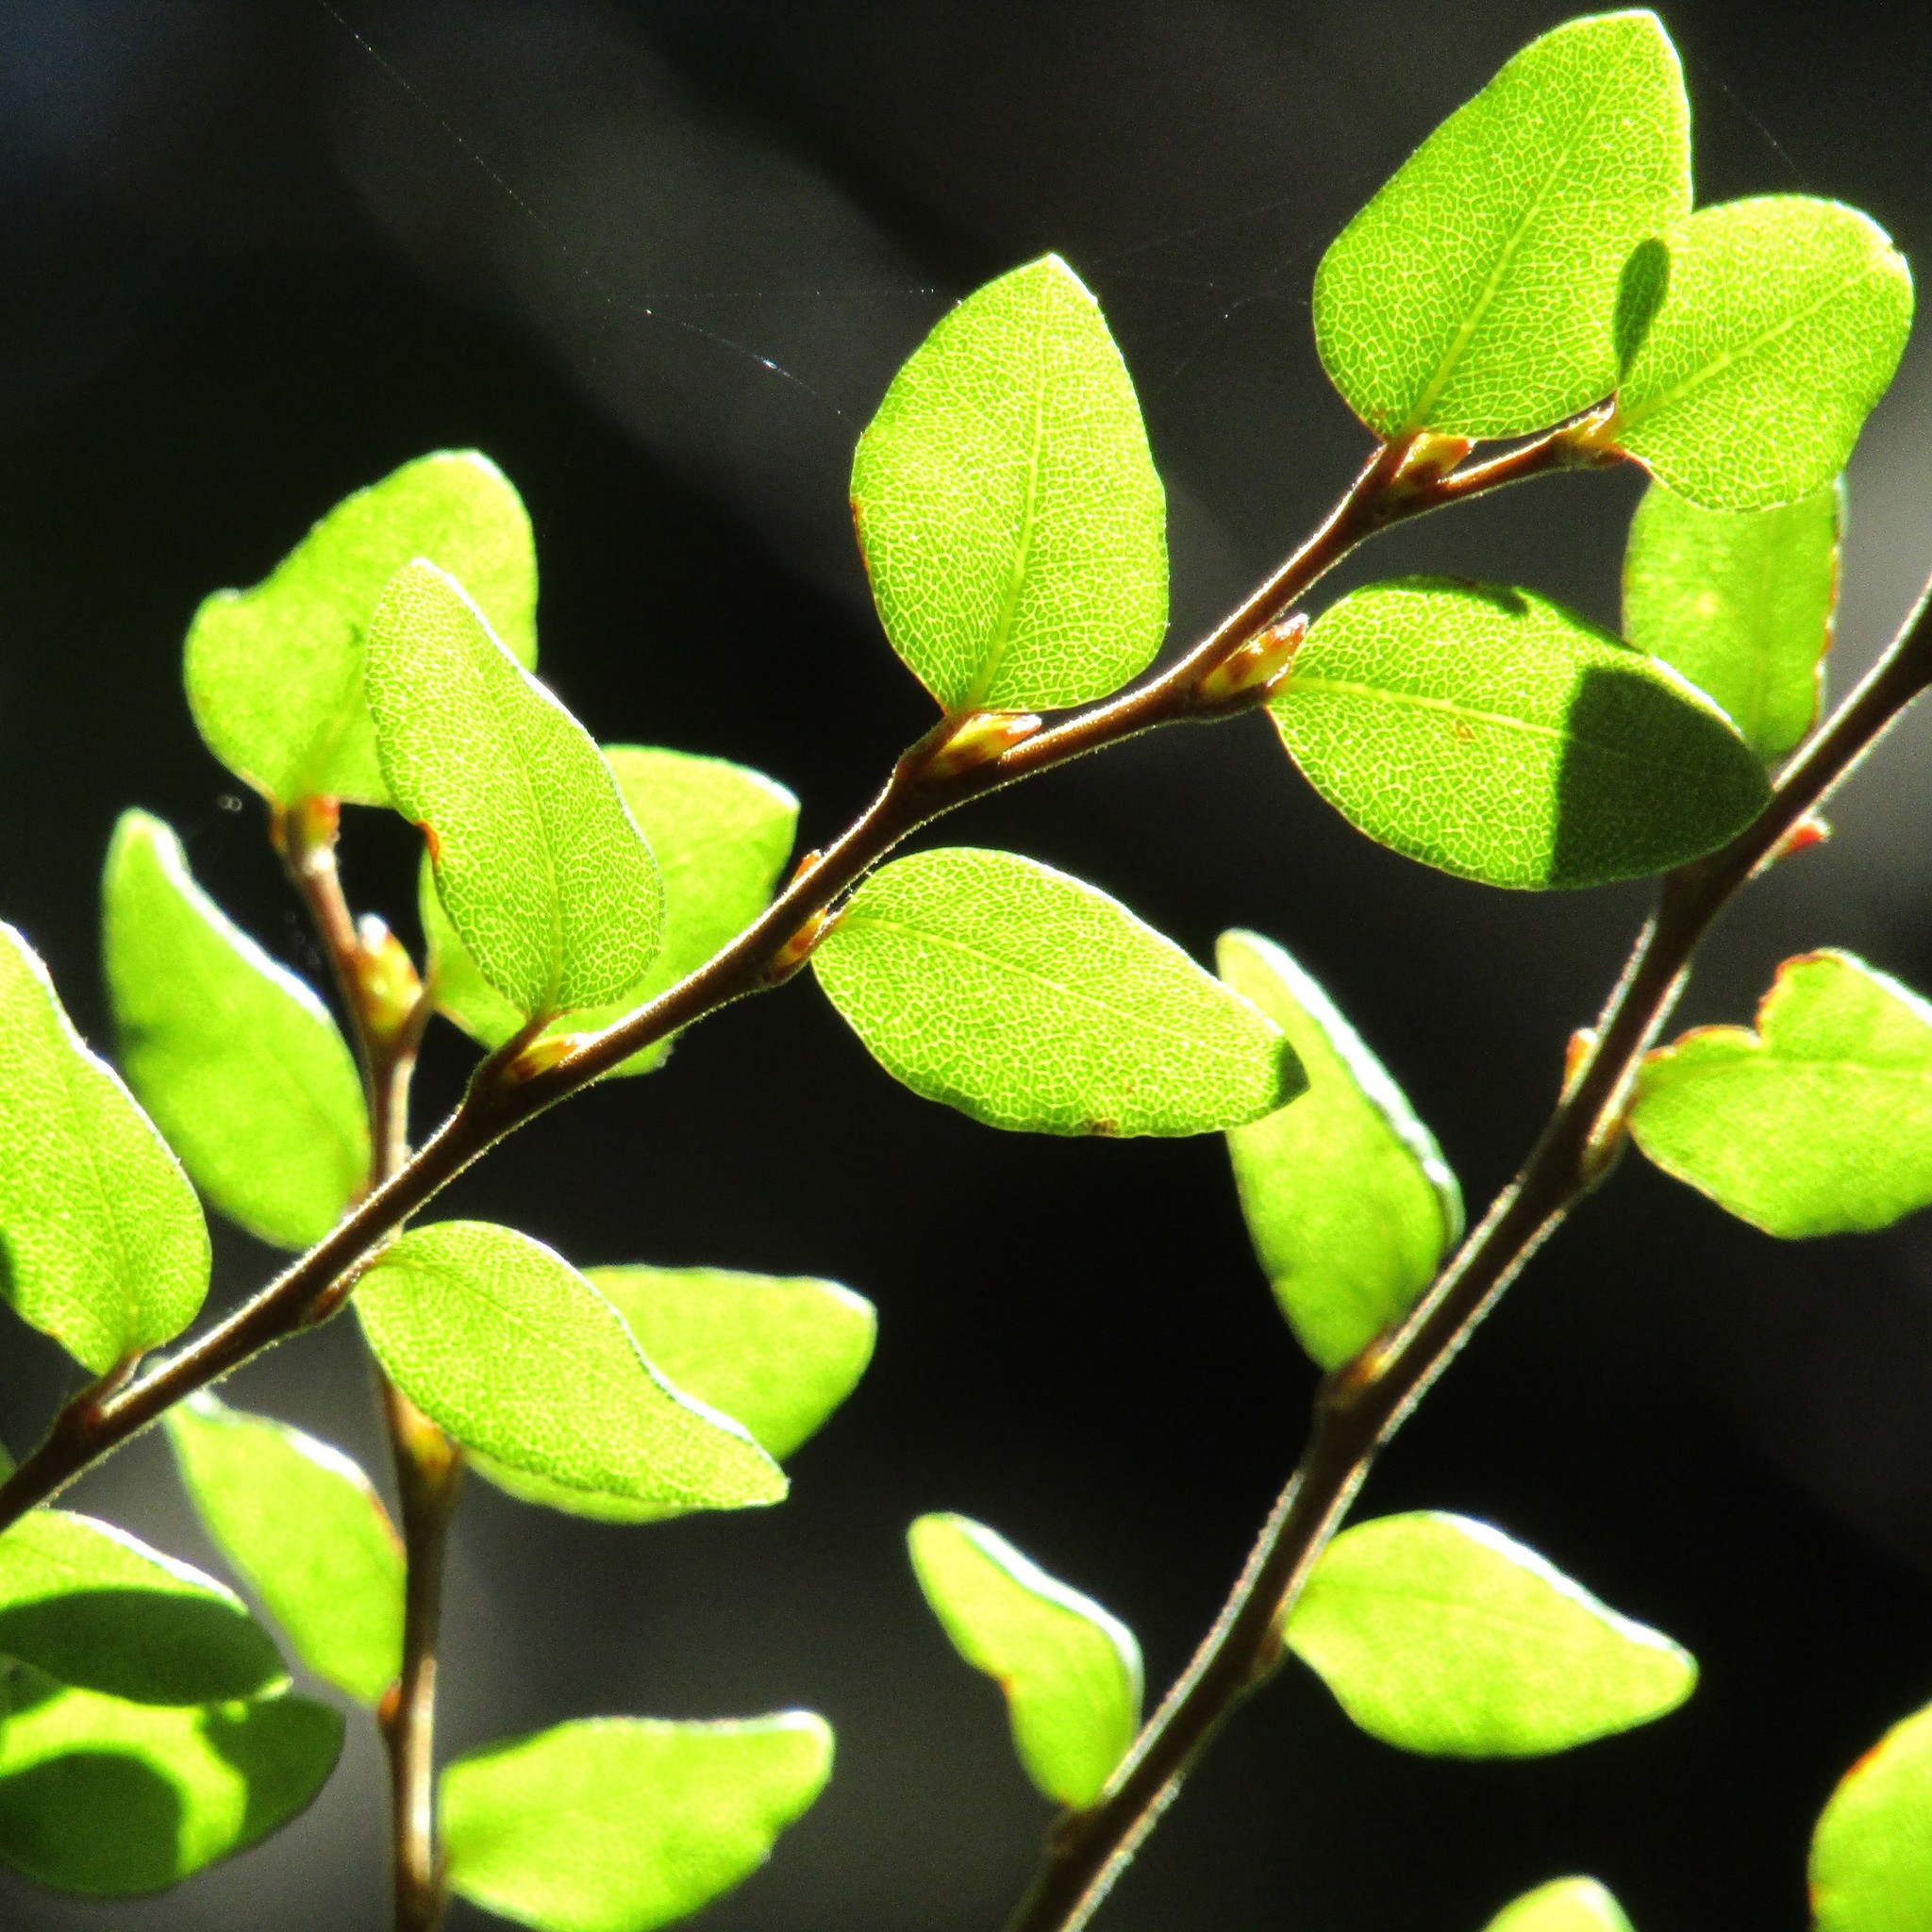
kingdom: Plantae
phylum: Tracheophyta
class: Magnoliopsida
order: Fagales
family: Nothofagaceae
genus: Nothofagus
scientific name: Nothofagus cliffortioides
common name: Mountain beech
